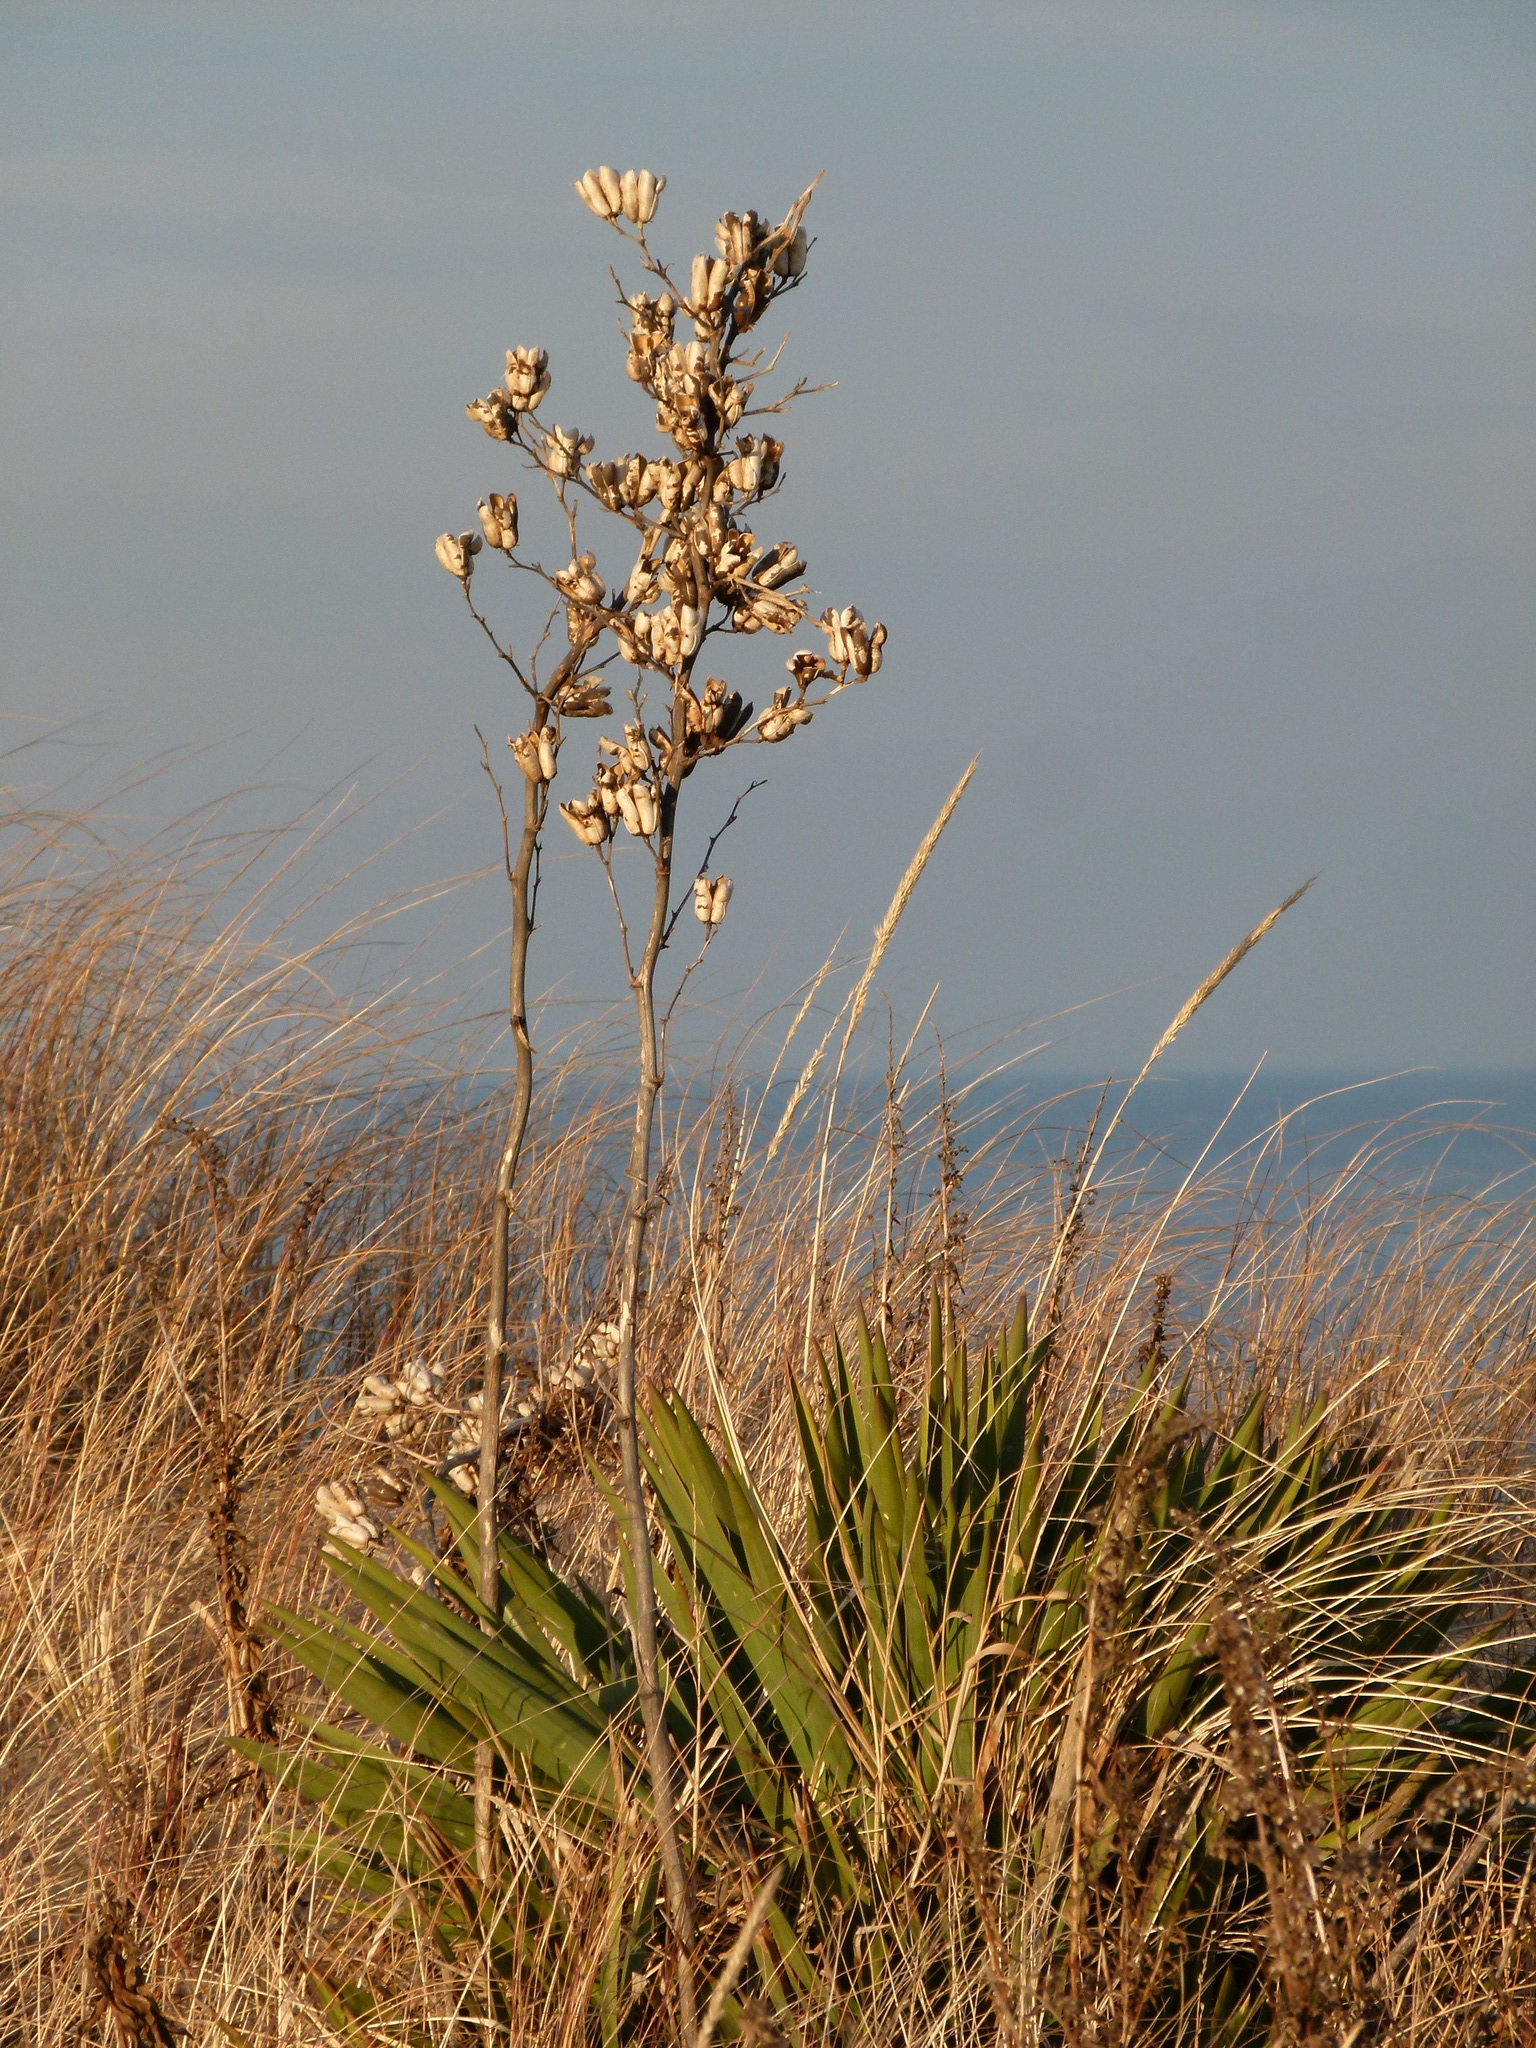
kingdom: Plantae
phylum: Tracheophyta
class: Liliopsida
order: Asparagales
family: Asparagaceae
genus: Yucca
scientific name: Yucca filamentosa
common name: Adam's-needle
